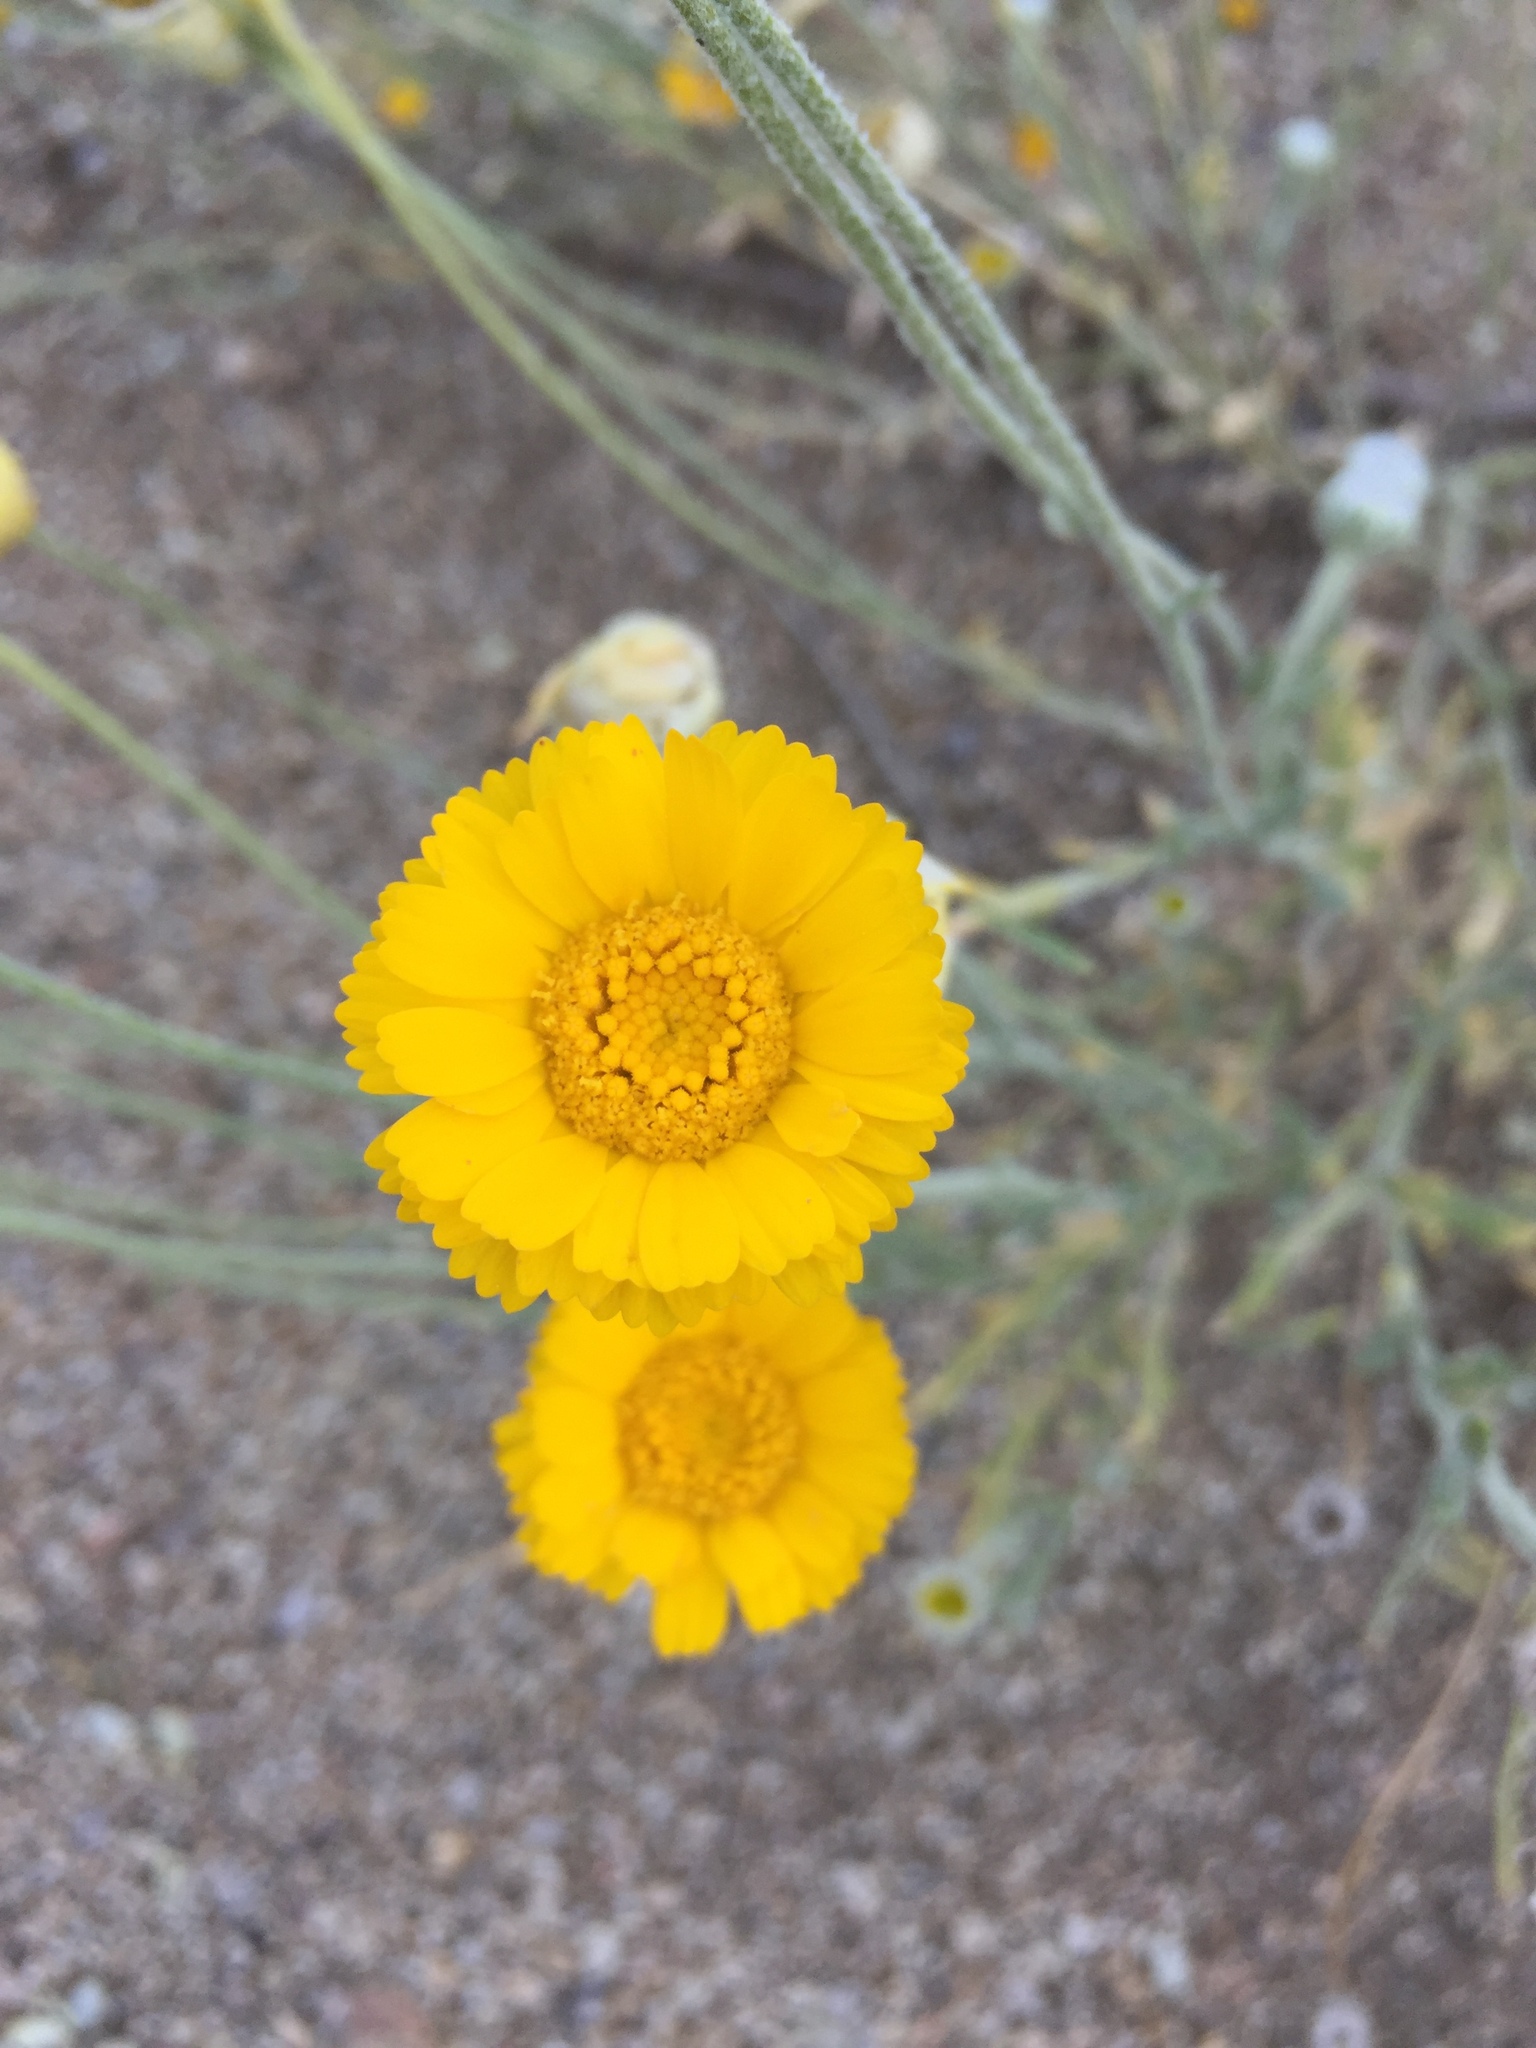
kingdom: Plantae
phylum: Tracheophyta
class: Magnoliopsida
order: Asterales
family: Asteraceae
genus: Baileya
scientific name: Baileya multiradiata
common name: Desert-marigold
